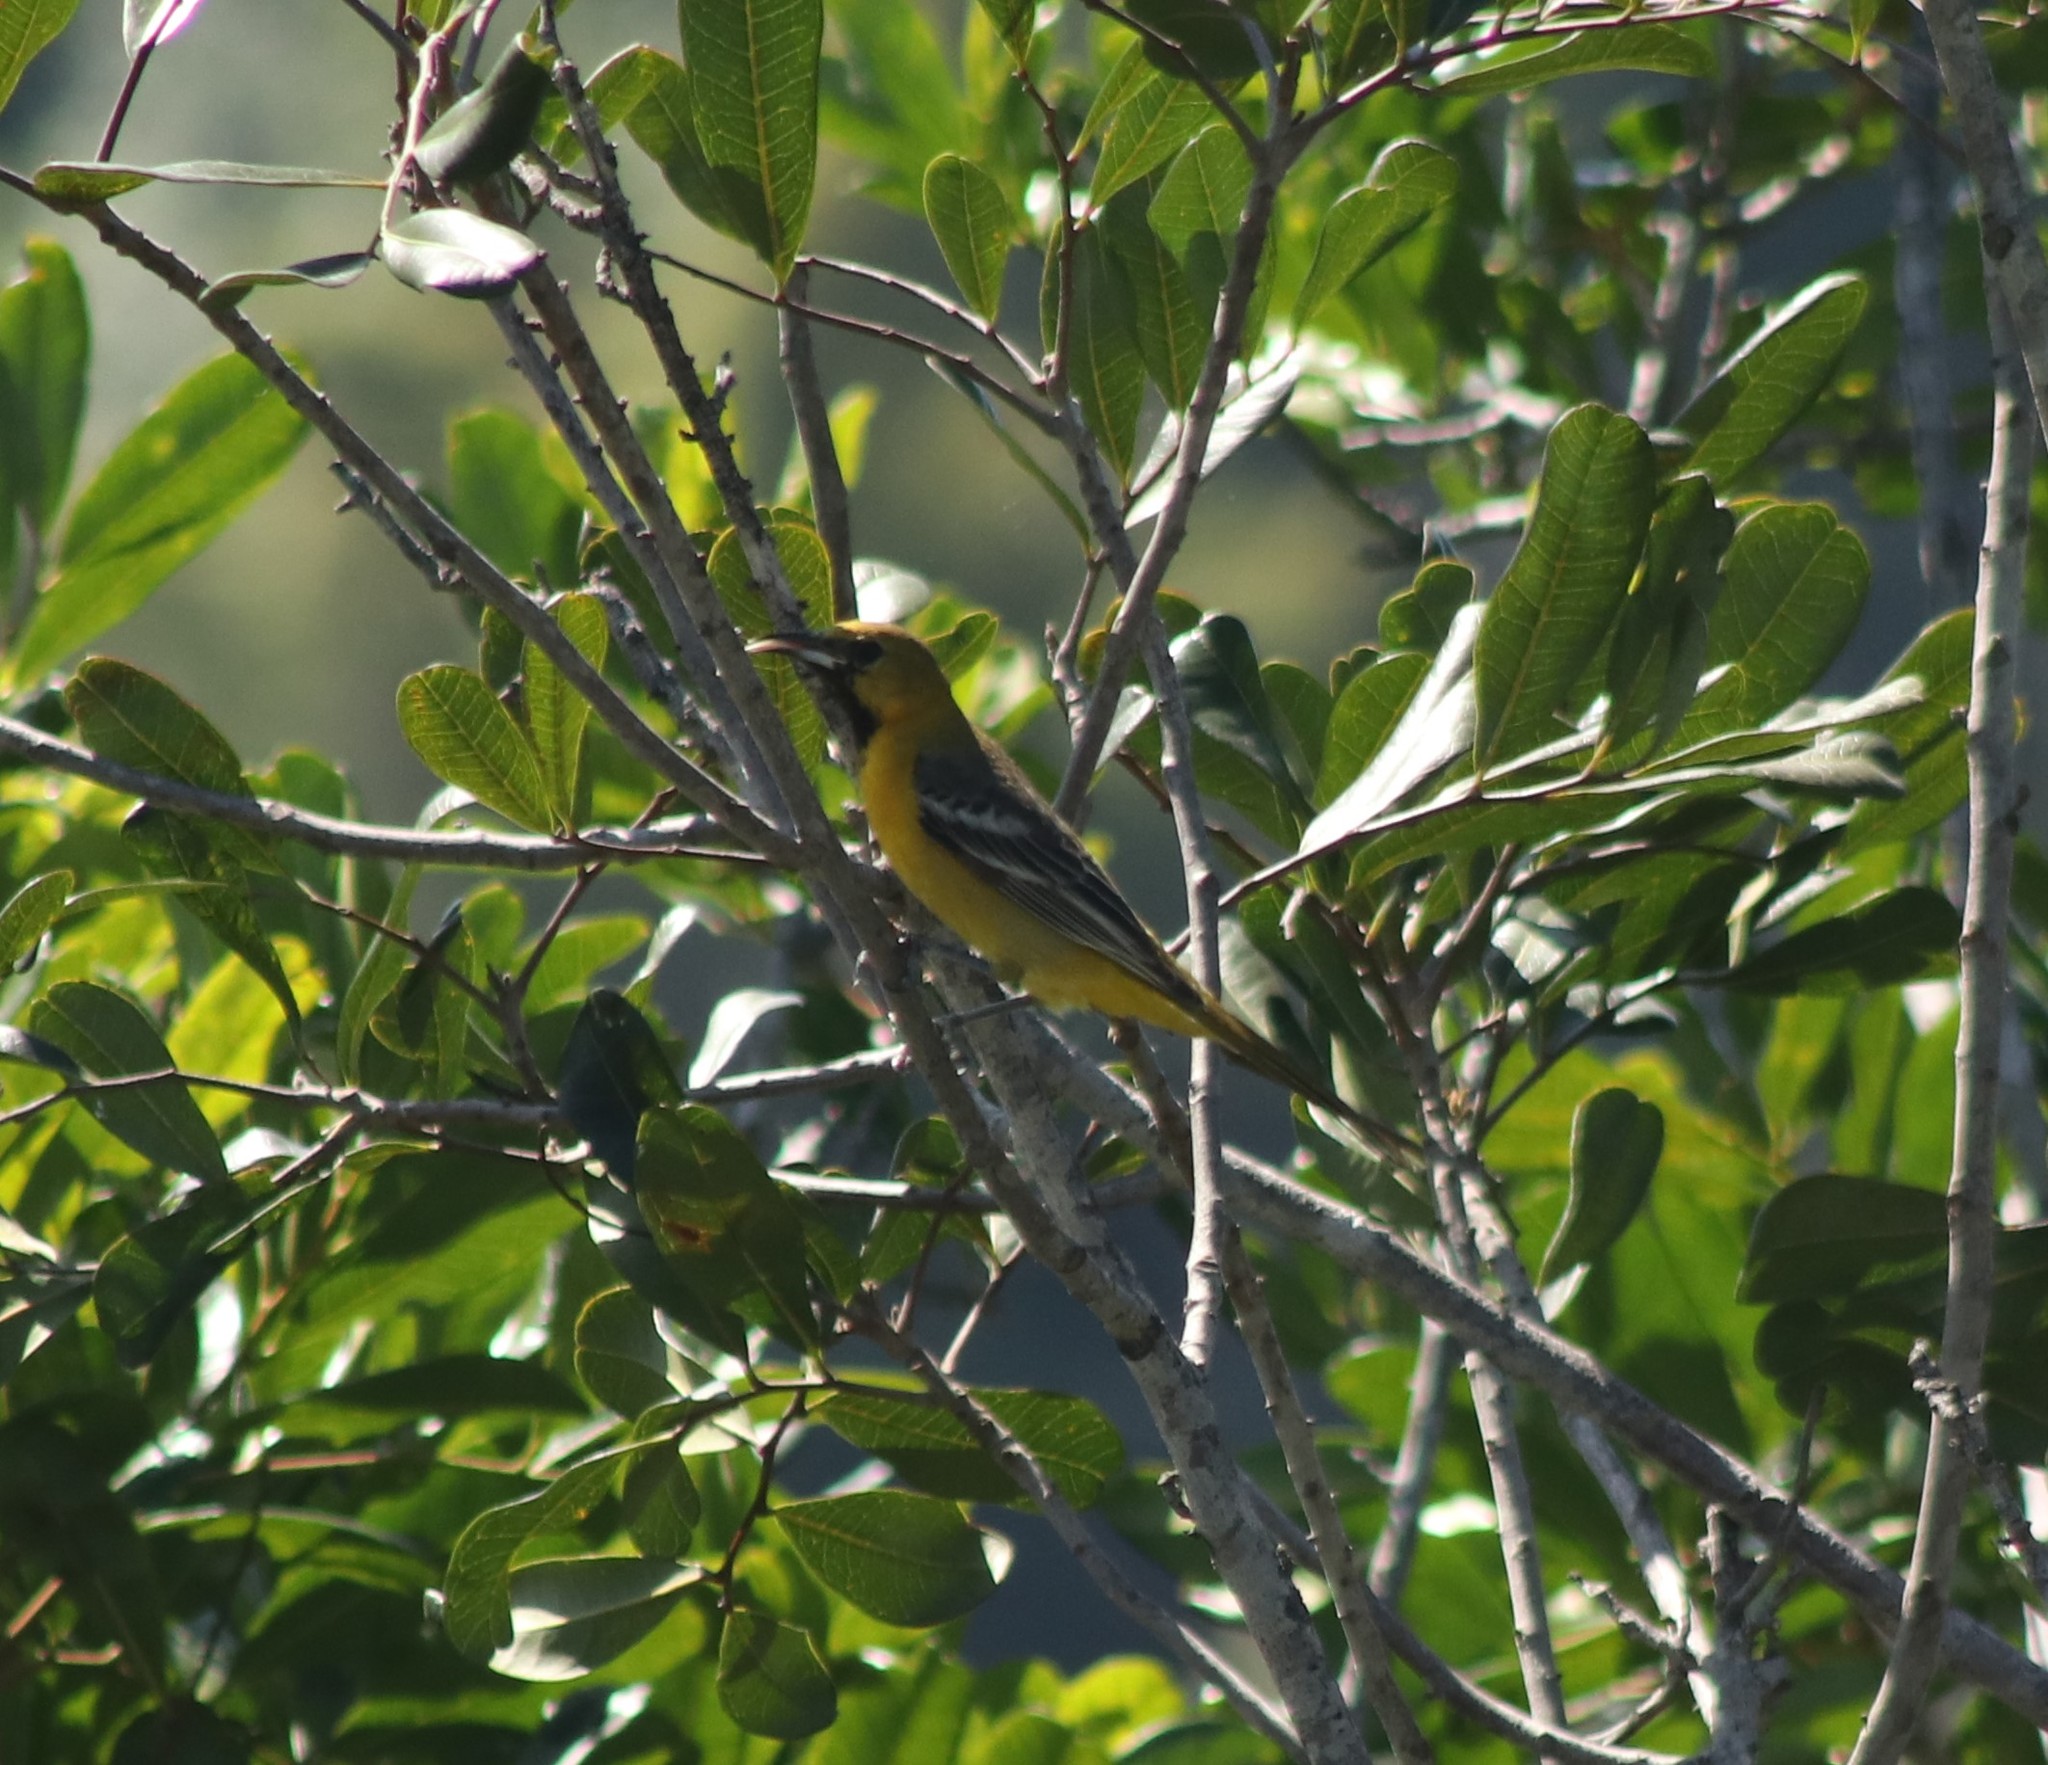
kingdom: Animalia
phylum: Chordata
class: Aves
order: Passeriformes
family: Icteridae
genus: Icterus
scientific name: Icterus cucullatus
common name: Hooded oriole
